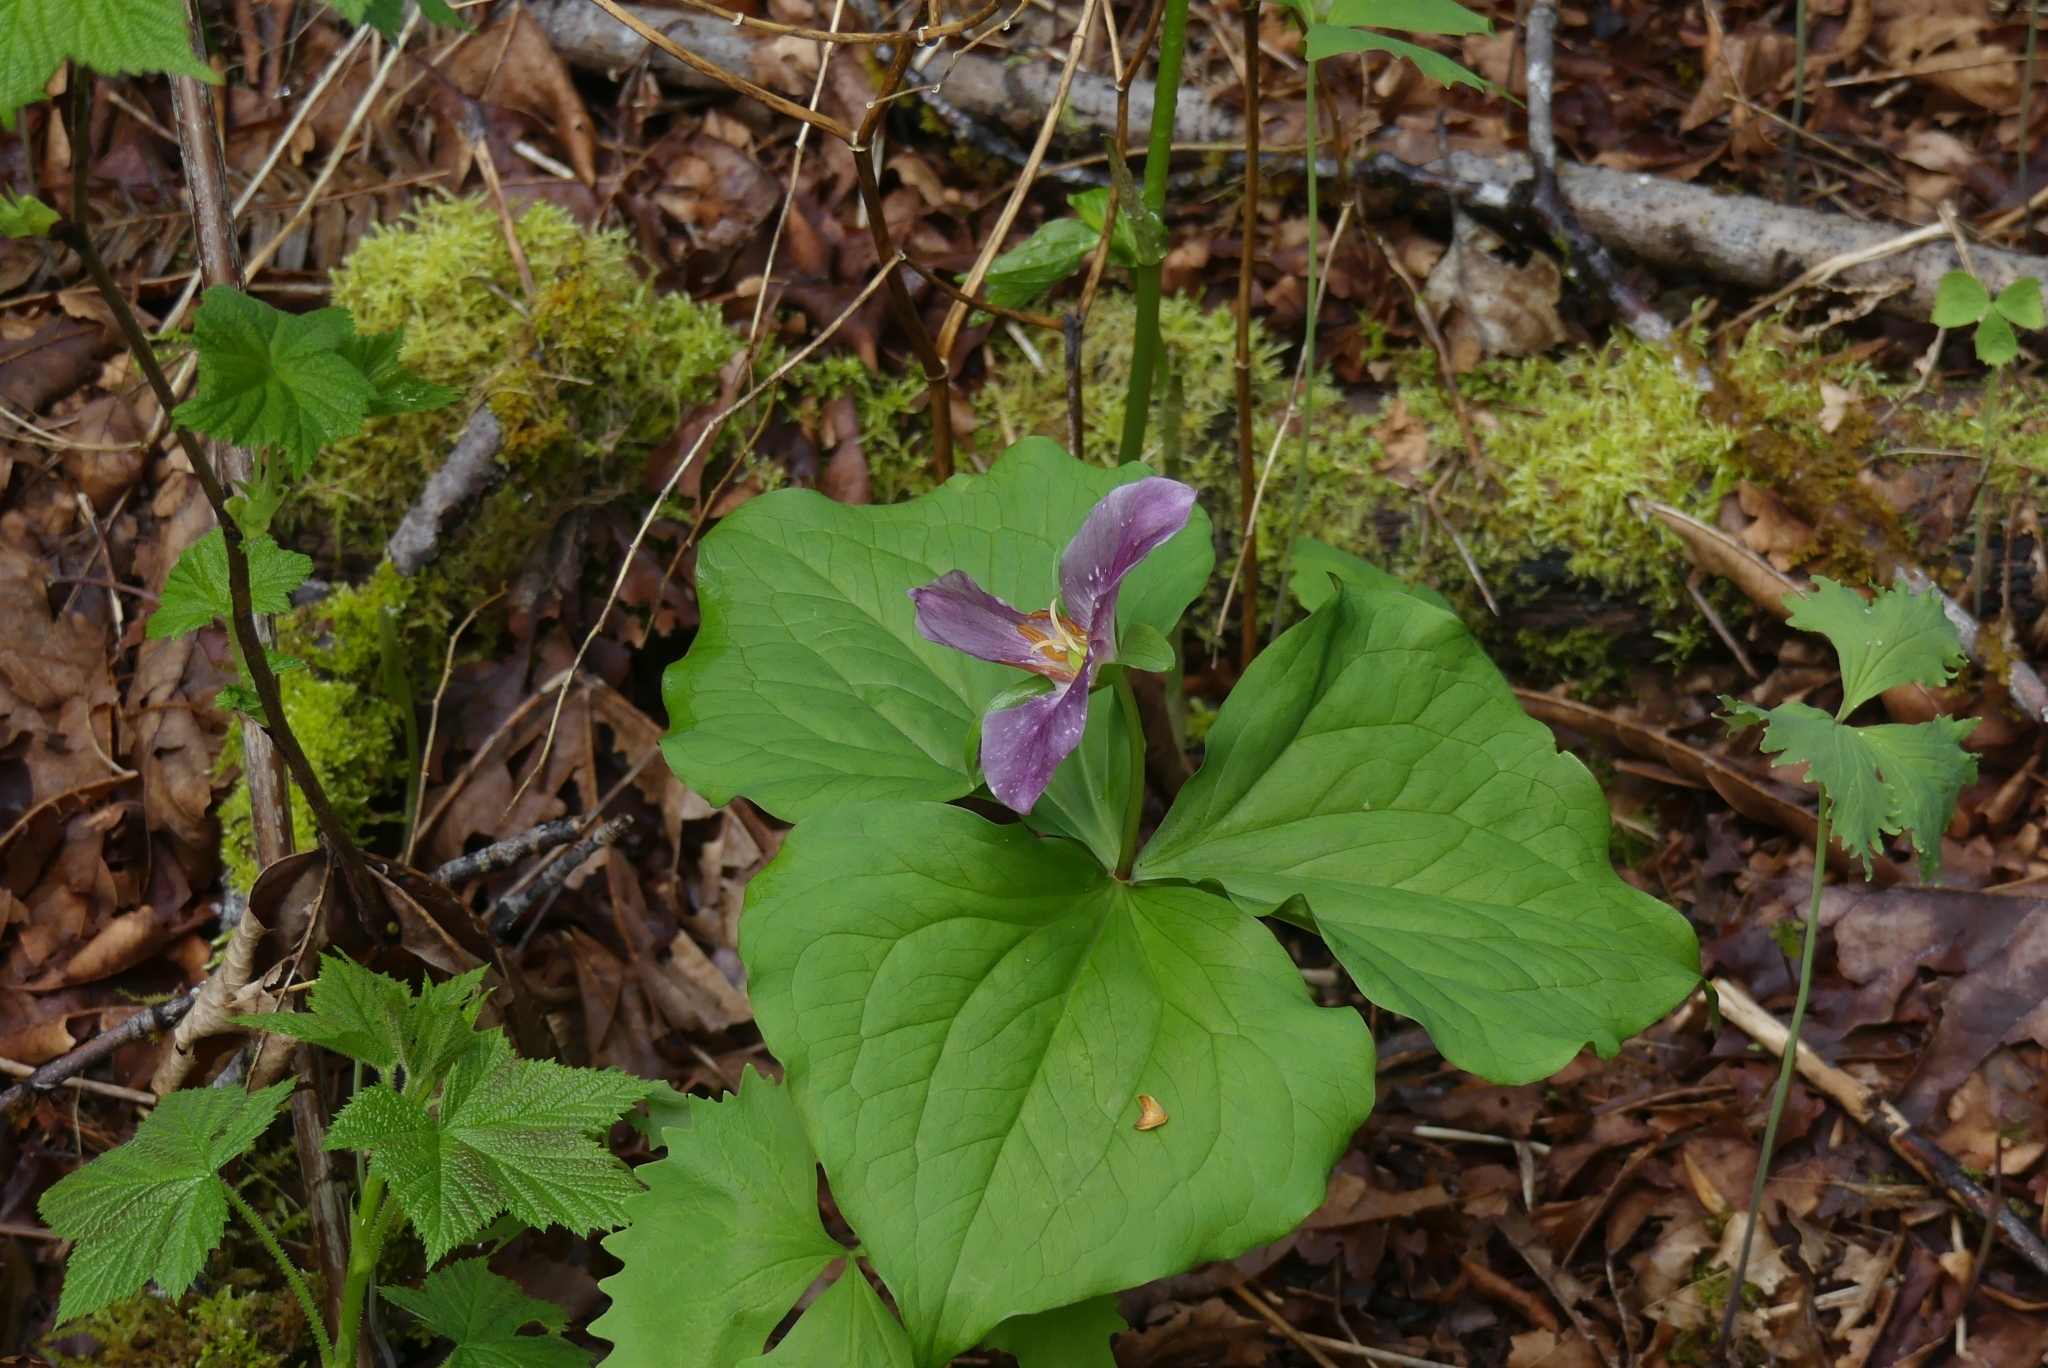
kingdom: Plantae
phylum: Tracheophyta
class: Liliopsida
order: Liliales
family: Melanthiaceae
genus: Trillium
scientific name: Trillium ovatum
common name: Pacific trillium
